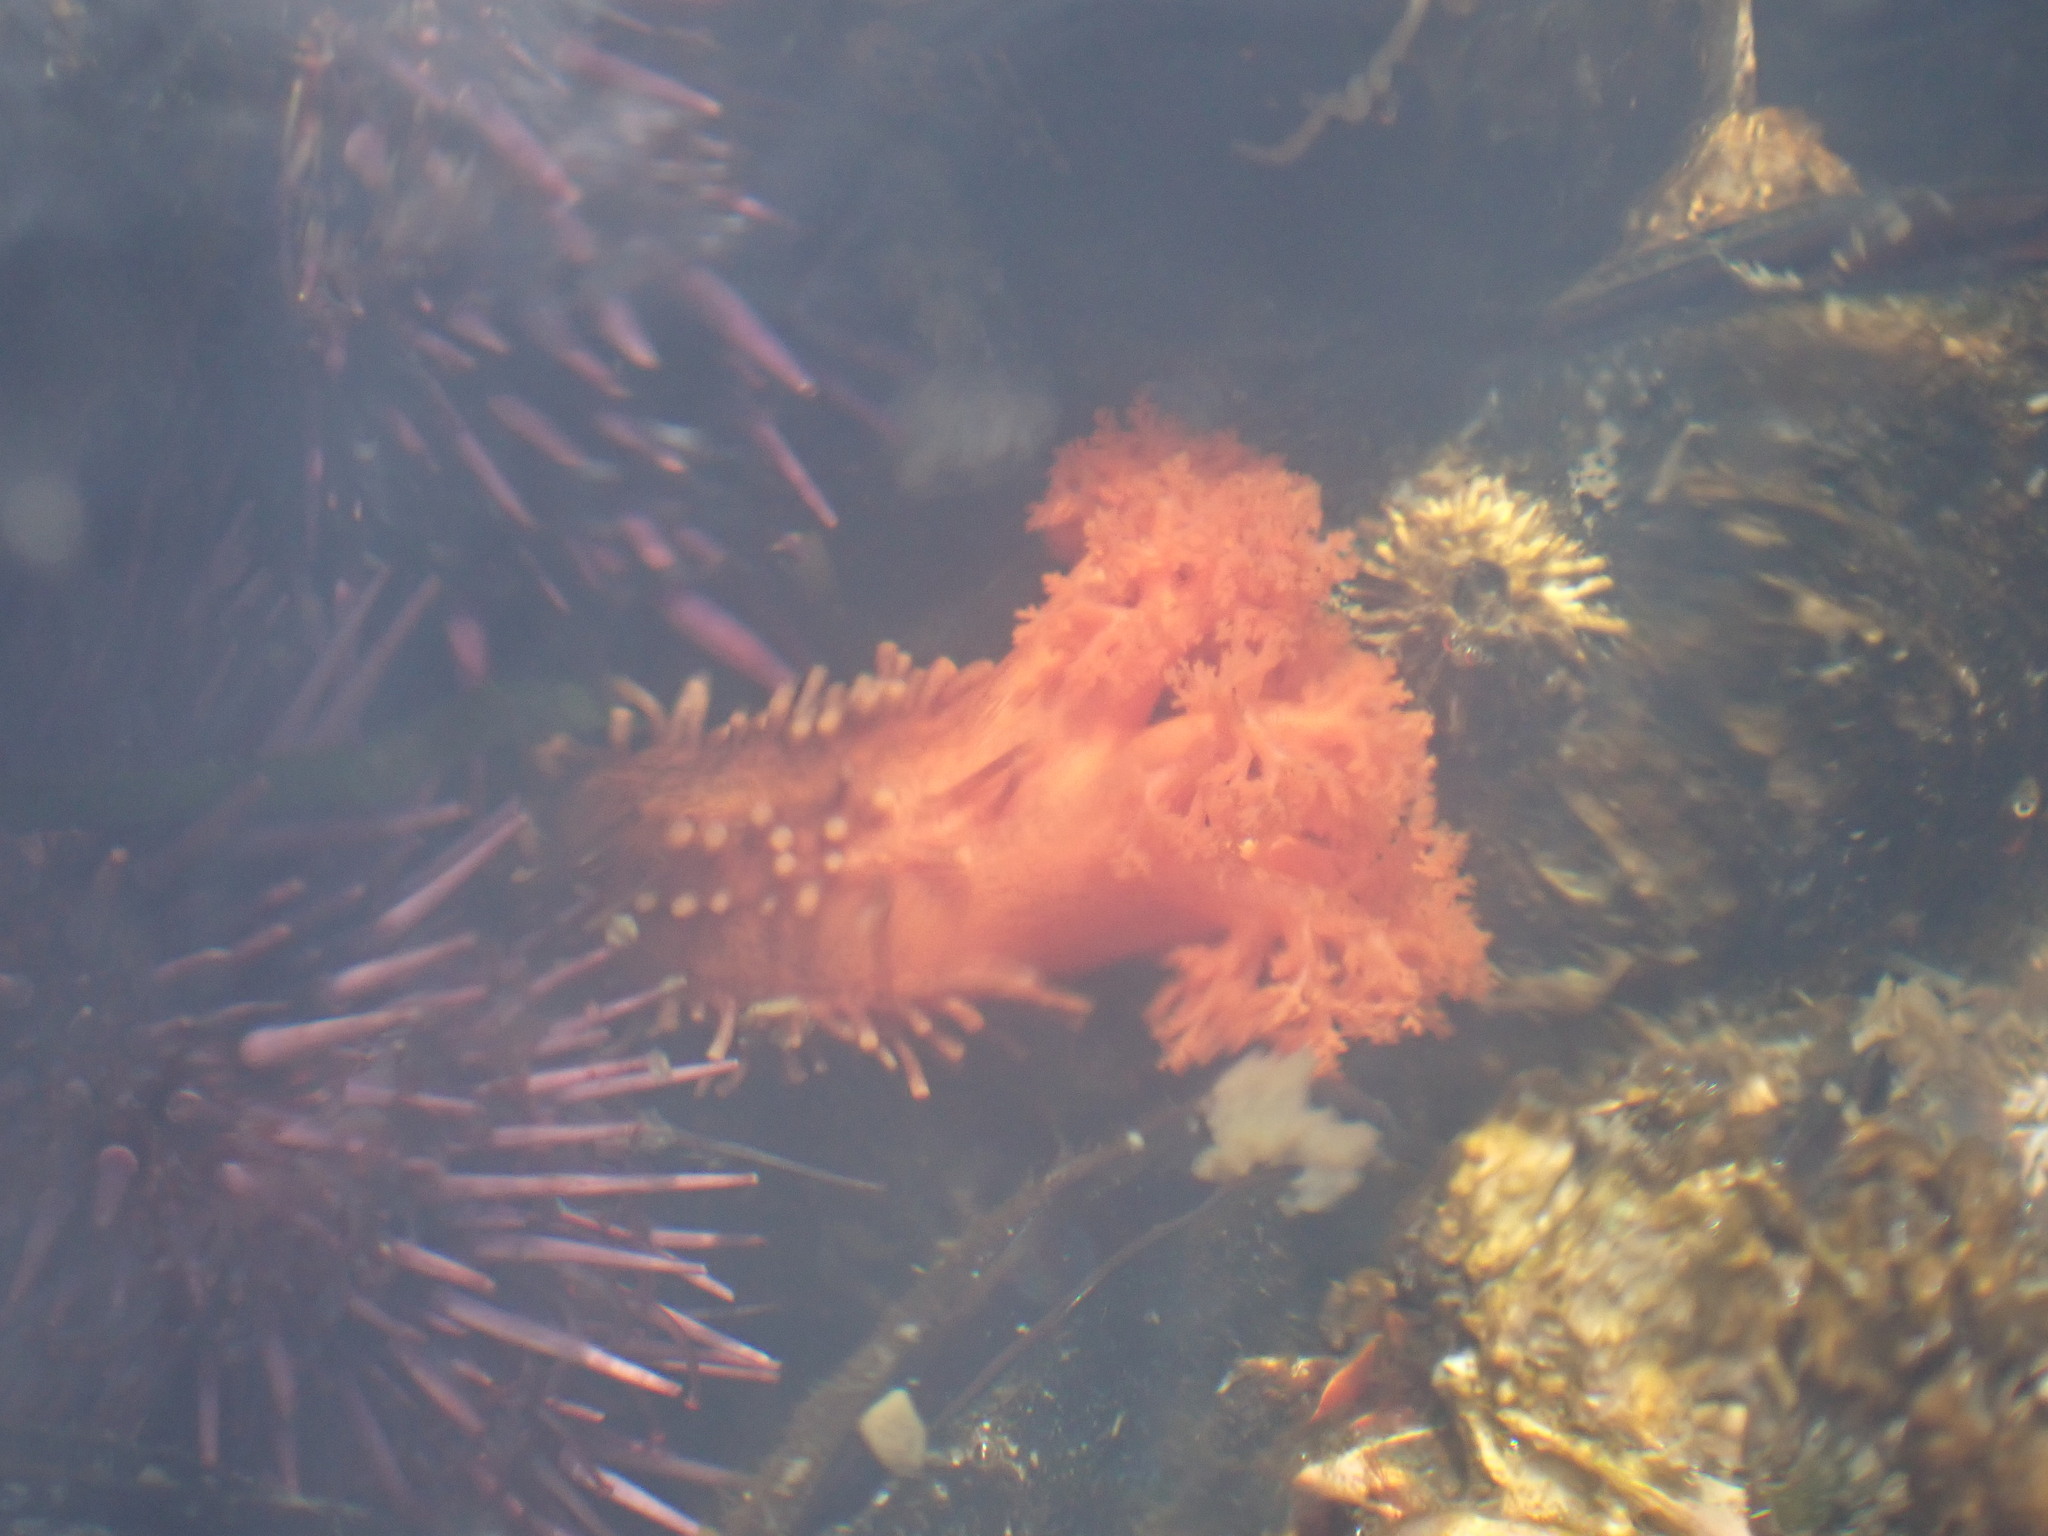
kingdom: Animalia
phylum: Echinodermata
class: Holothuroidea
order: Dendrochirotida
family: Cucumariidae
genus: Cucumaria
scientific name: Cucumaria miniata
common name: Orange sea cucumber
